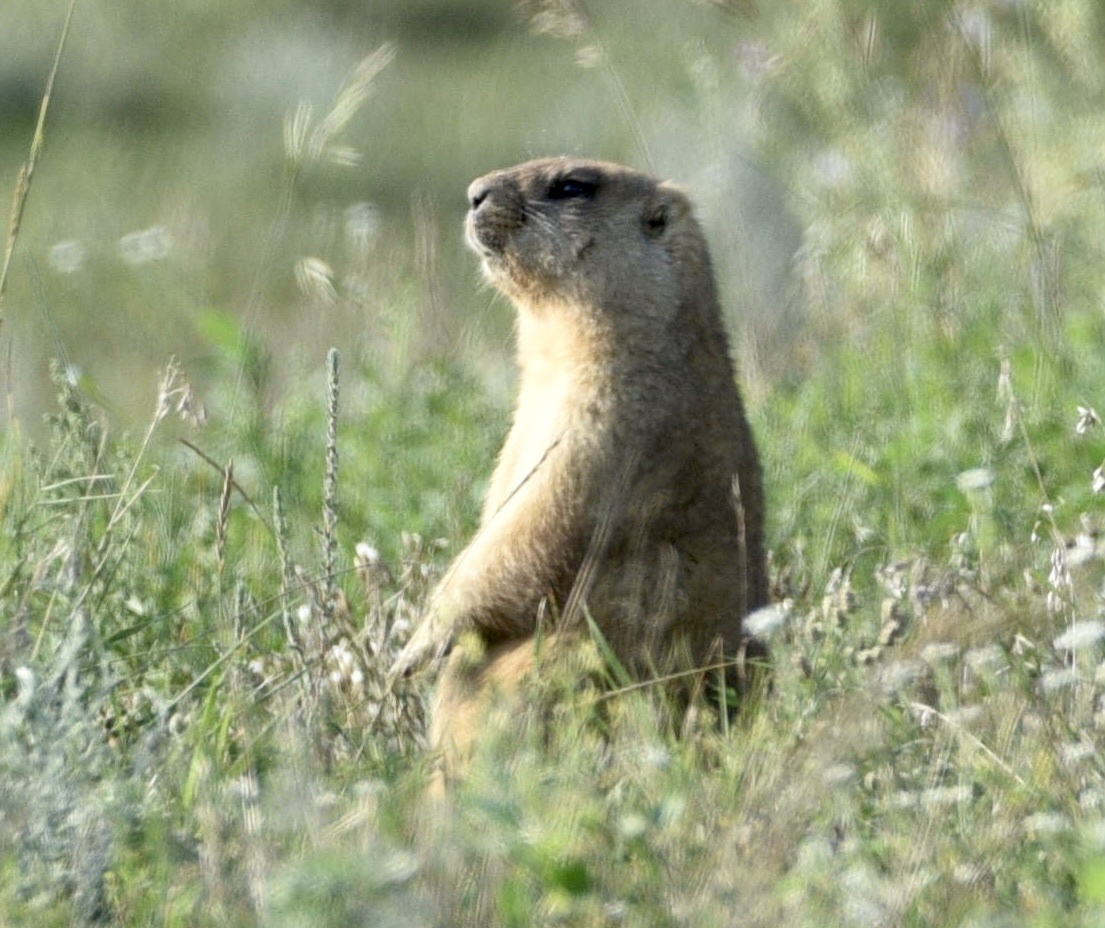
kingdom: Animalia
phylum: Chordata
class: Mammalia
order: Rodentia
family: Sciuridae
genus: Marmota
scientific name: Marmota bobak
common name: Bobak marmot
